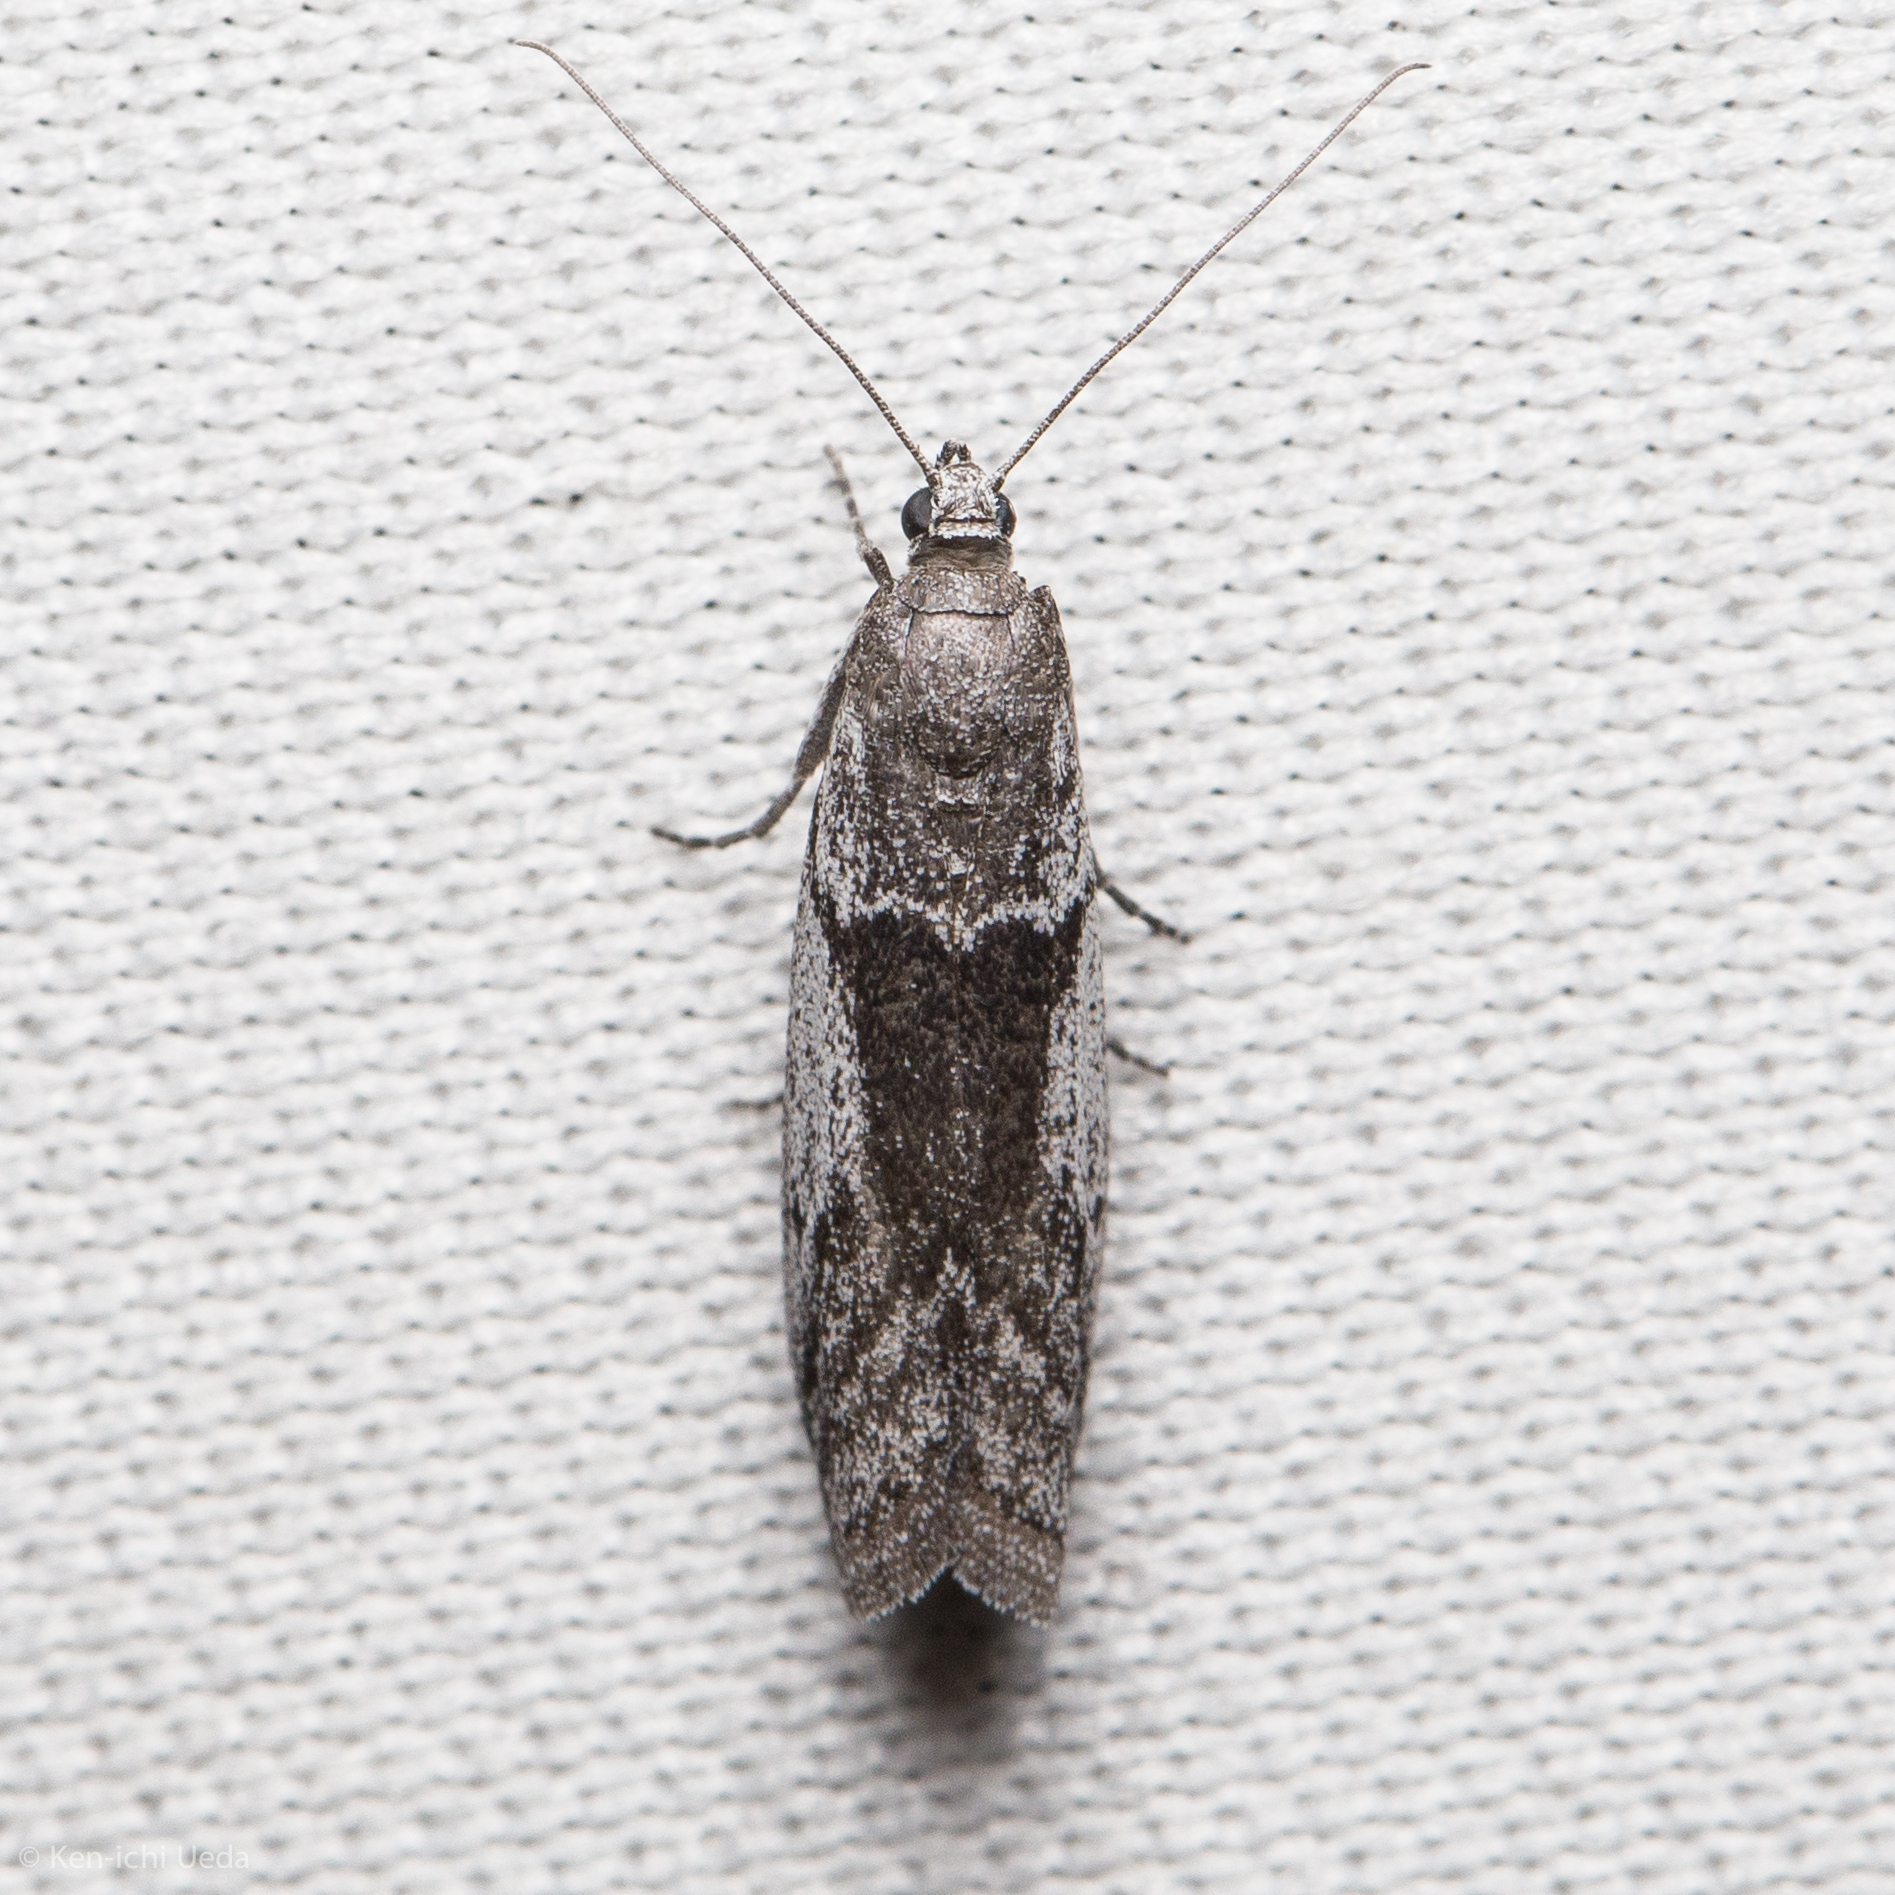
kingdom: Animalia
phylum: Arthropoda
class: Insecta
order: Lepidoptera
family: Pyralidae
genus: Homoeosoma
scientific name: Homoeosoma impressalis
